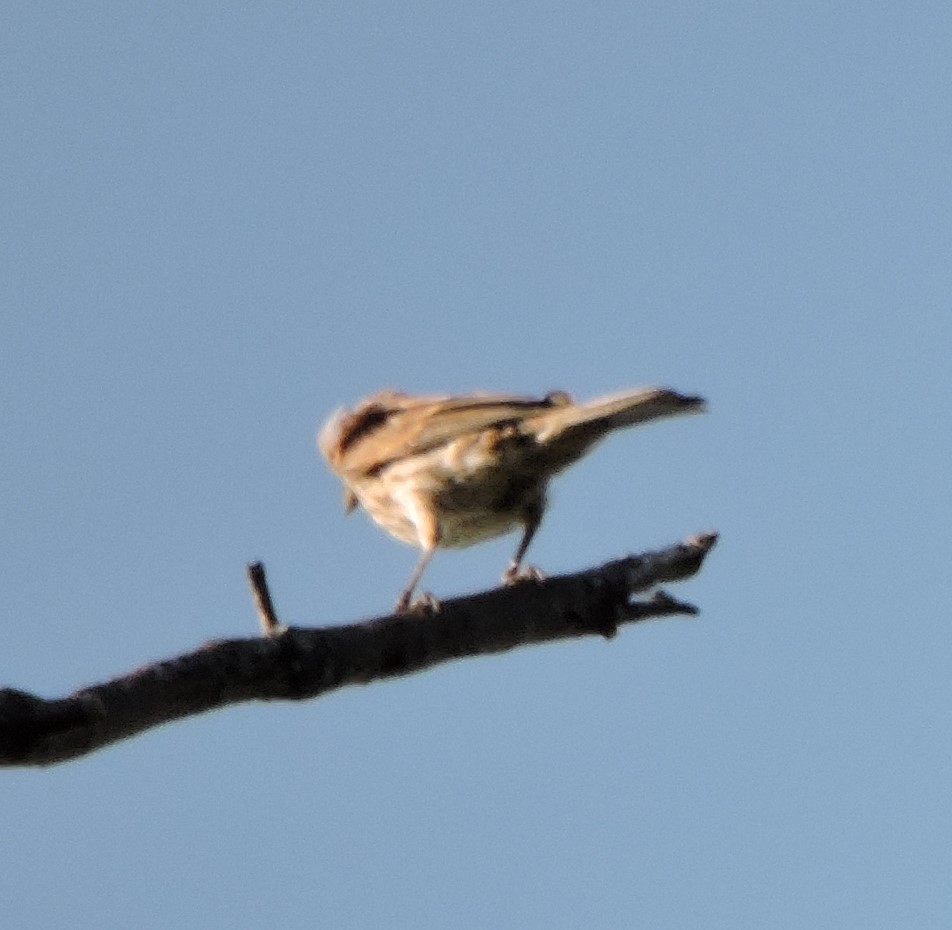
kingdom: Animalia
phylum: Chordata
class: Aves
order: Passeriformes
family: Fringillidae
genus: Haemorhous
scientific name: Haemorhous mexicanus
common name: House finch
